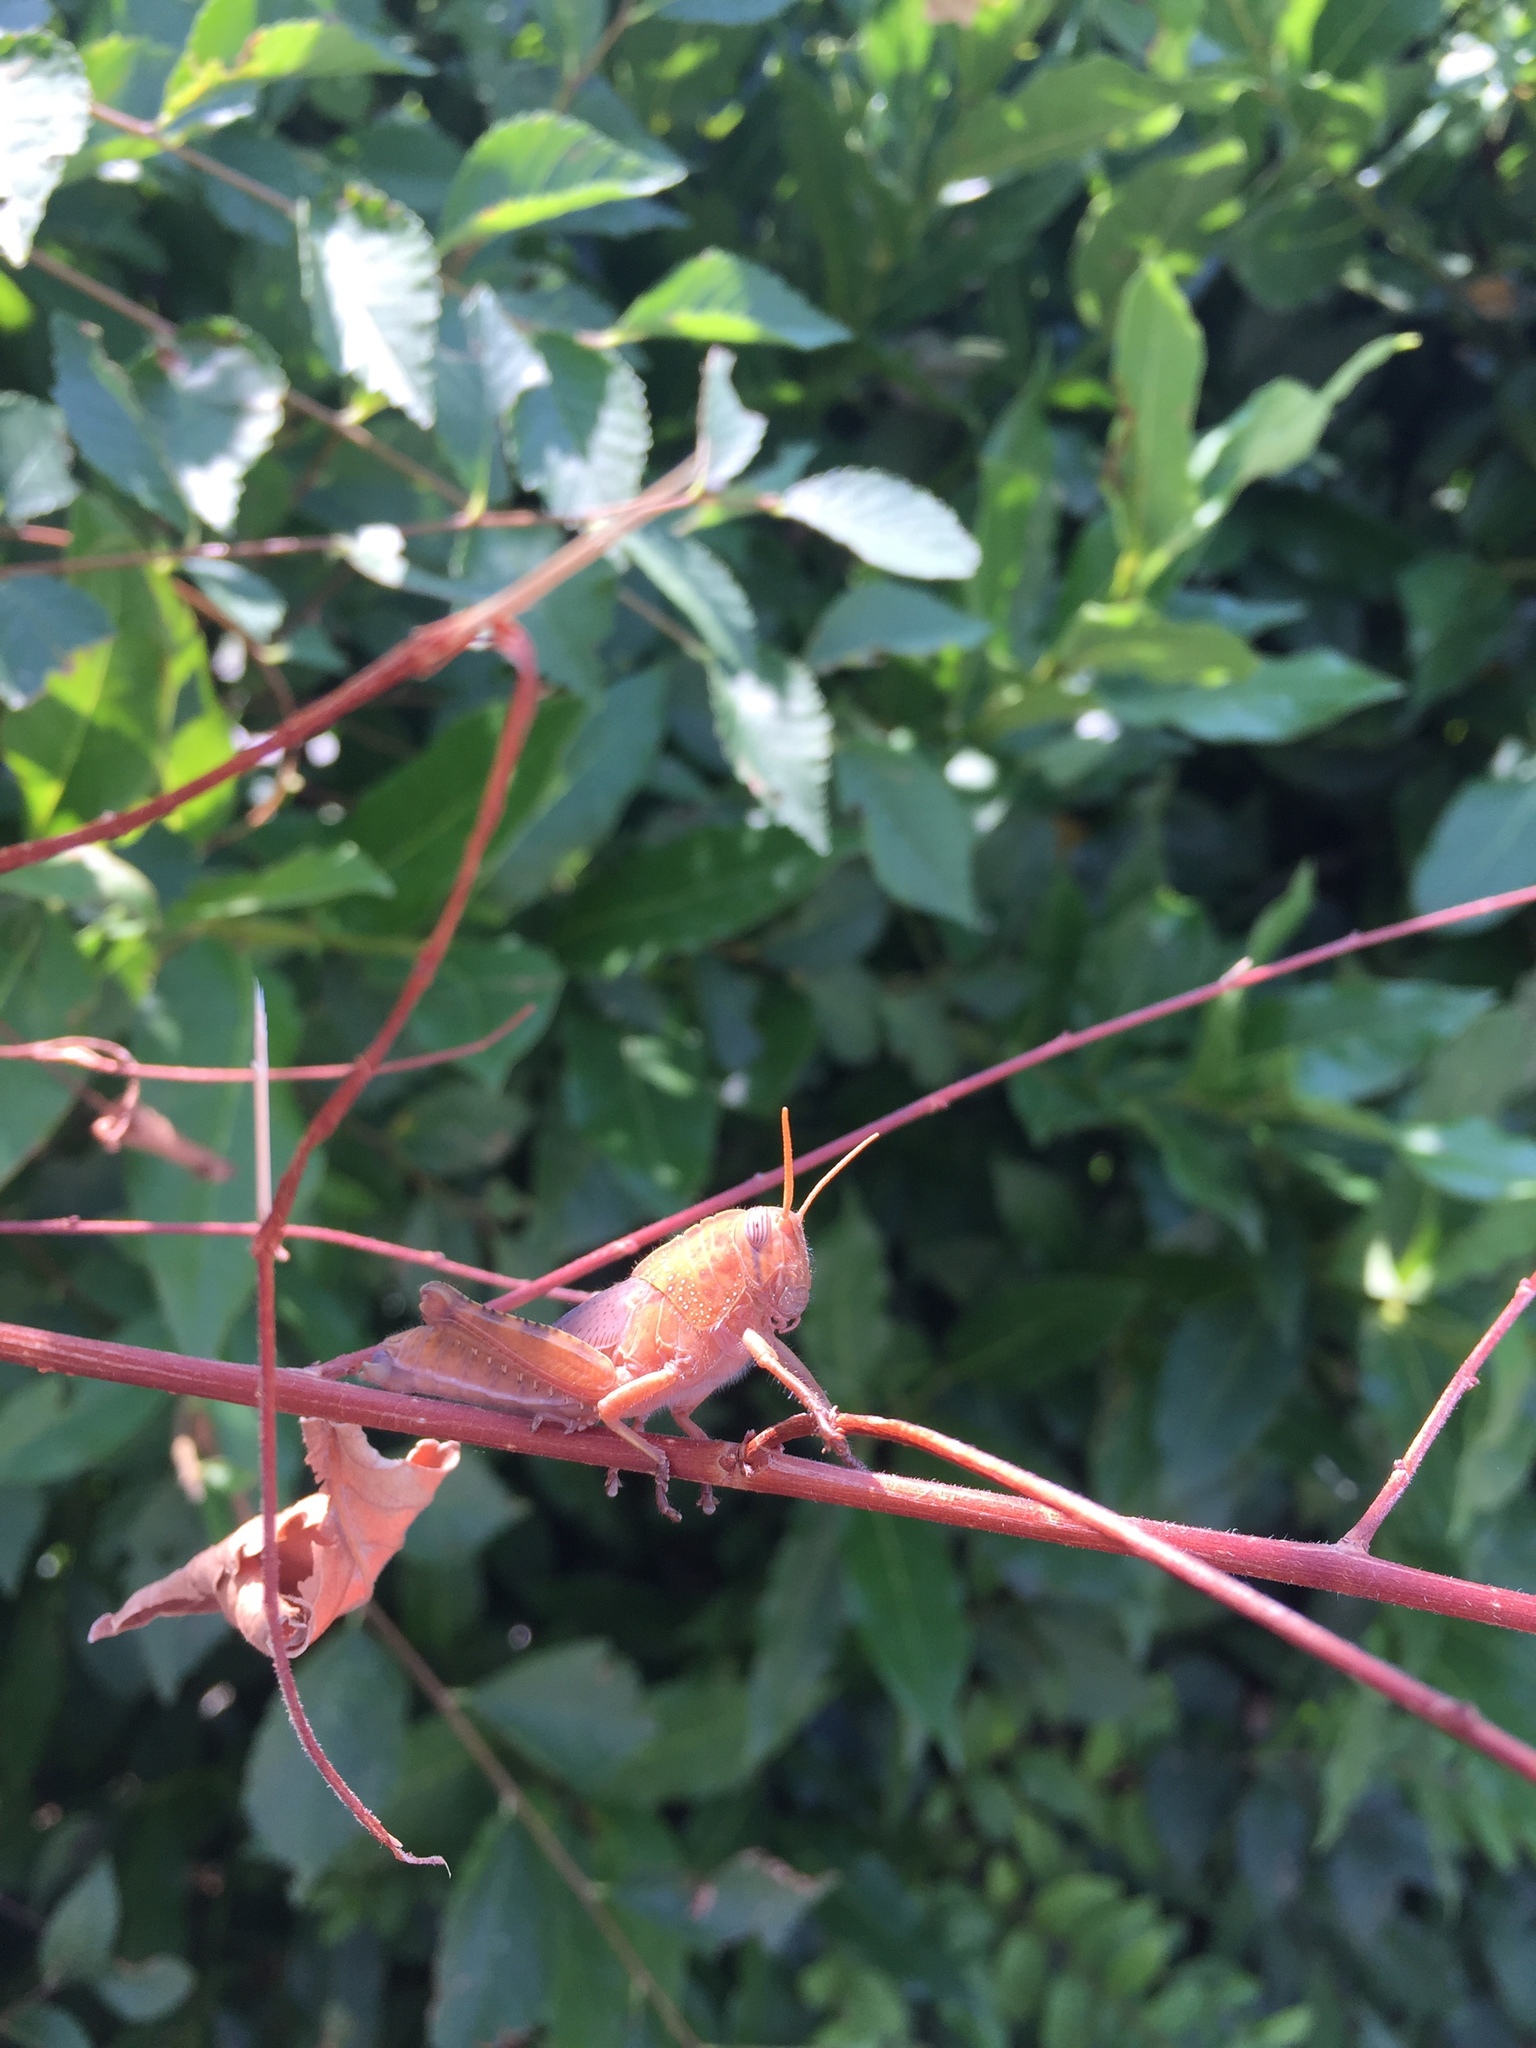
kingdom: Animalia
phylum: Arthropoda
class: Insecta
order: Orthoptera
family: Acrididae
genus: Anacridium
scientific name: Anacridium aegyptium
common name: Egyptian grasshopper
